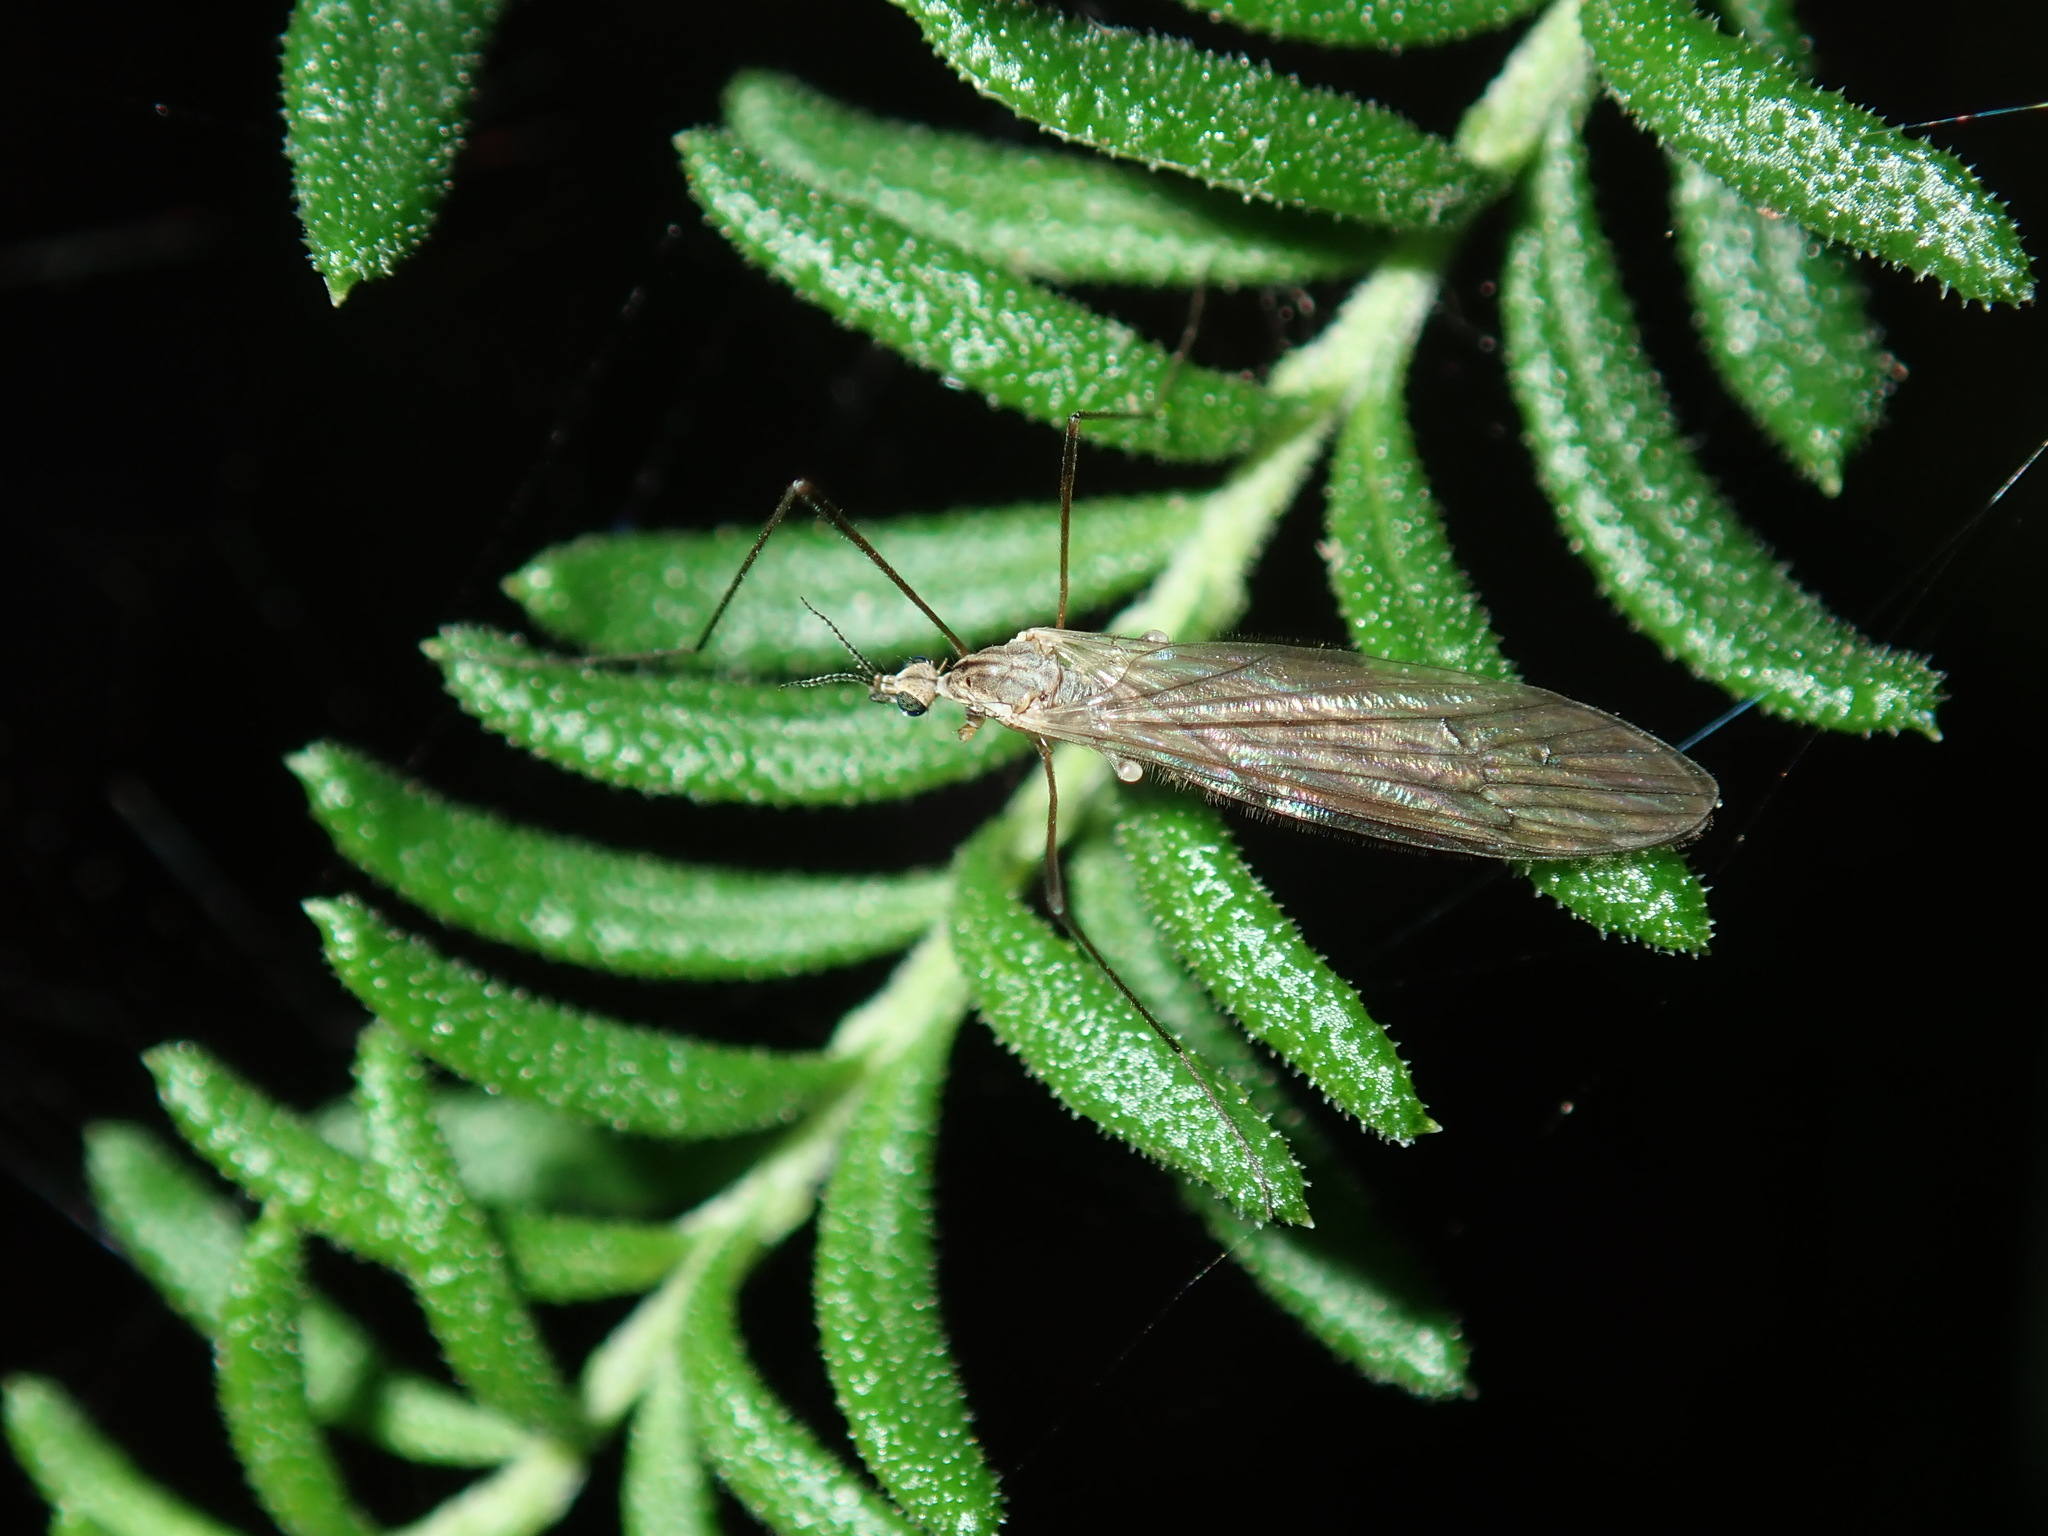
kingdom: Animalia
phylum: Arthropoda
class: Insecta
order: Diptera
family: Limoniidae
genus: Symplecta
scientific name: Symplecta pilipes
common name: Crane fly
